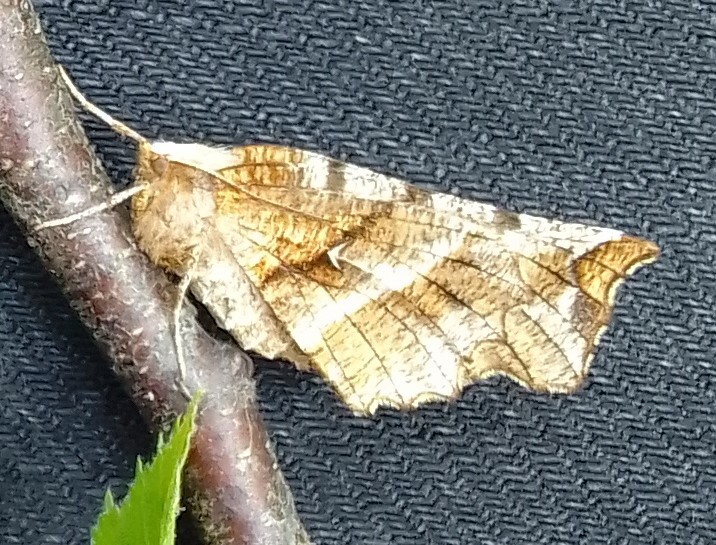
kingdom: Animalia
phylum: Arthropoda
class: Insecta
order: Lepidoptera
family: Geometridae
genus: Selenia
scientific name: Selenia dentaria
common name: Early thorn
